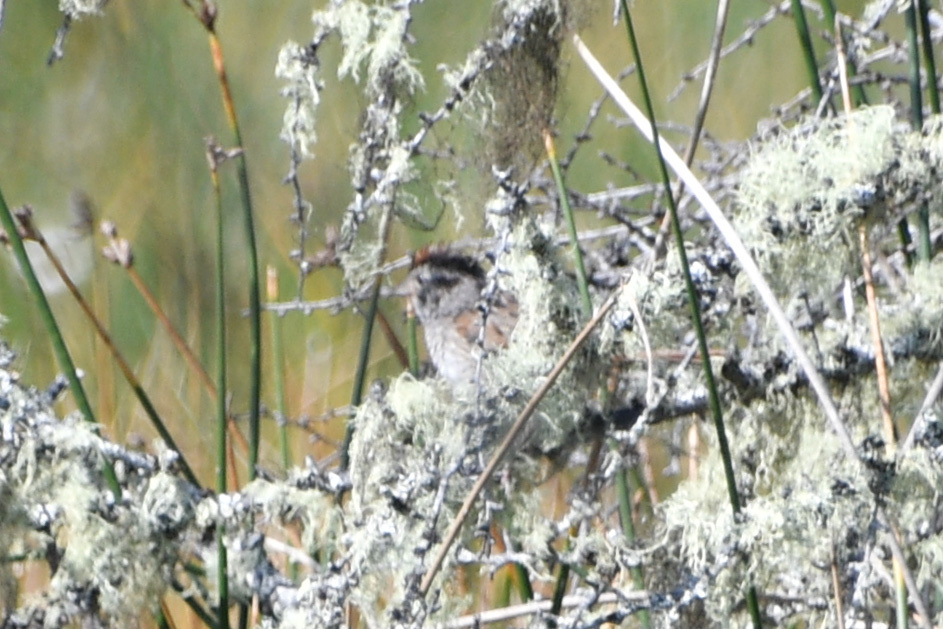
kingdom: Animalia
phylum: Chordata
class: Aves
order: Passeriformes
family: Passerellidae
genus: Melospiza
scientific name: Melospiza georgiana
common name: Swamp sparrow
